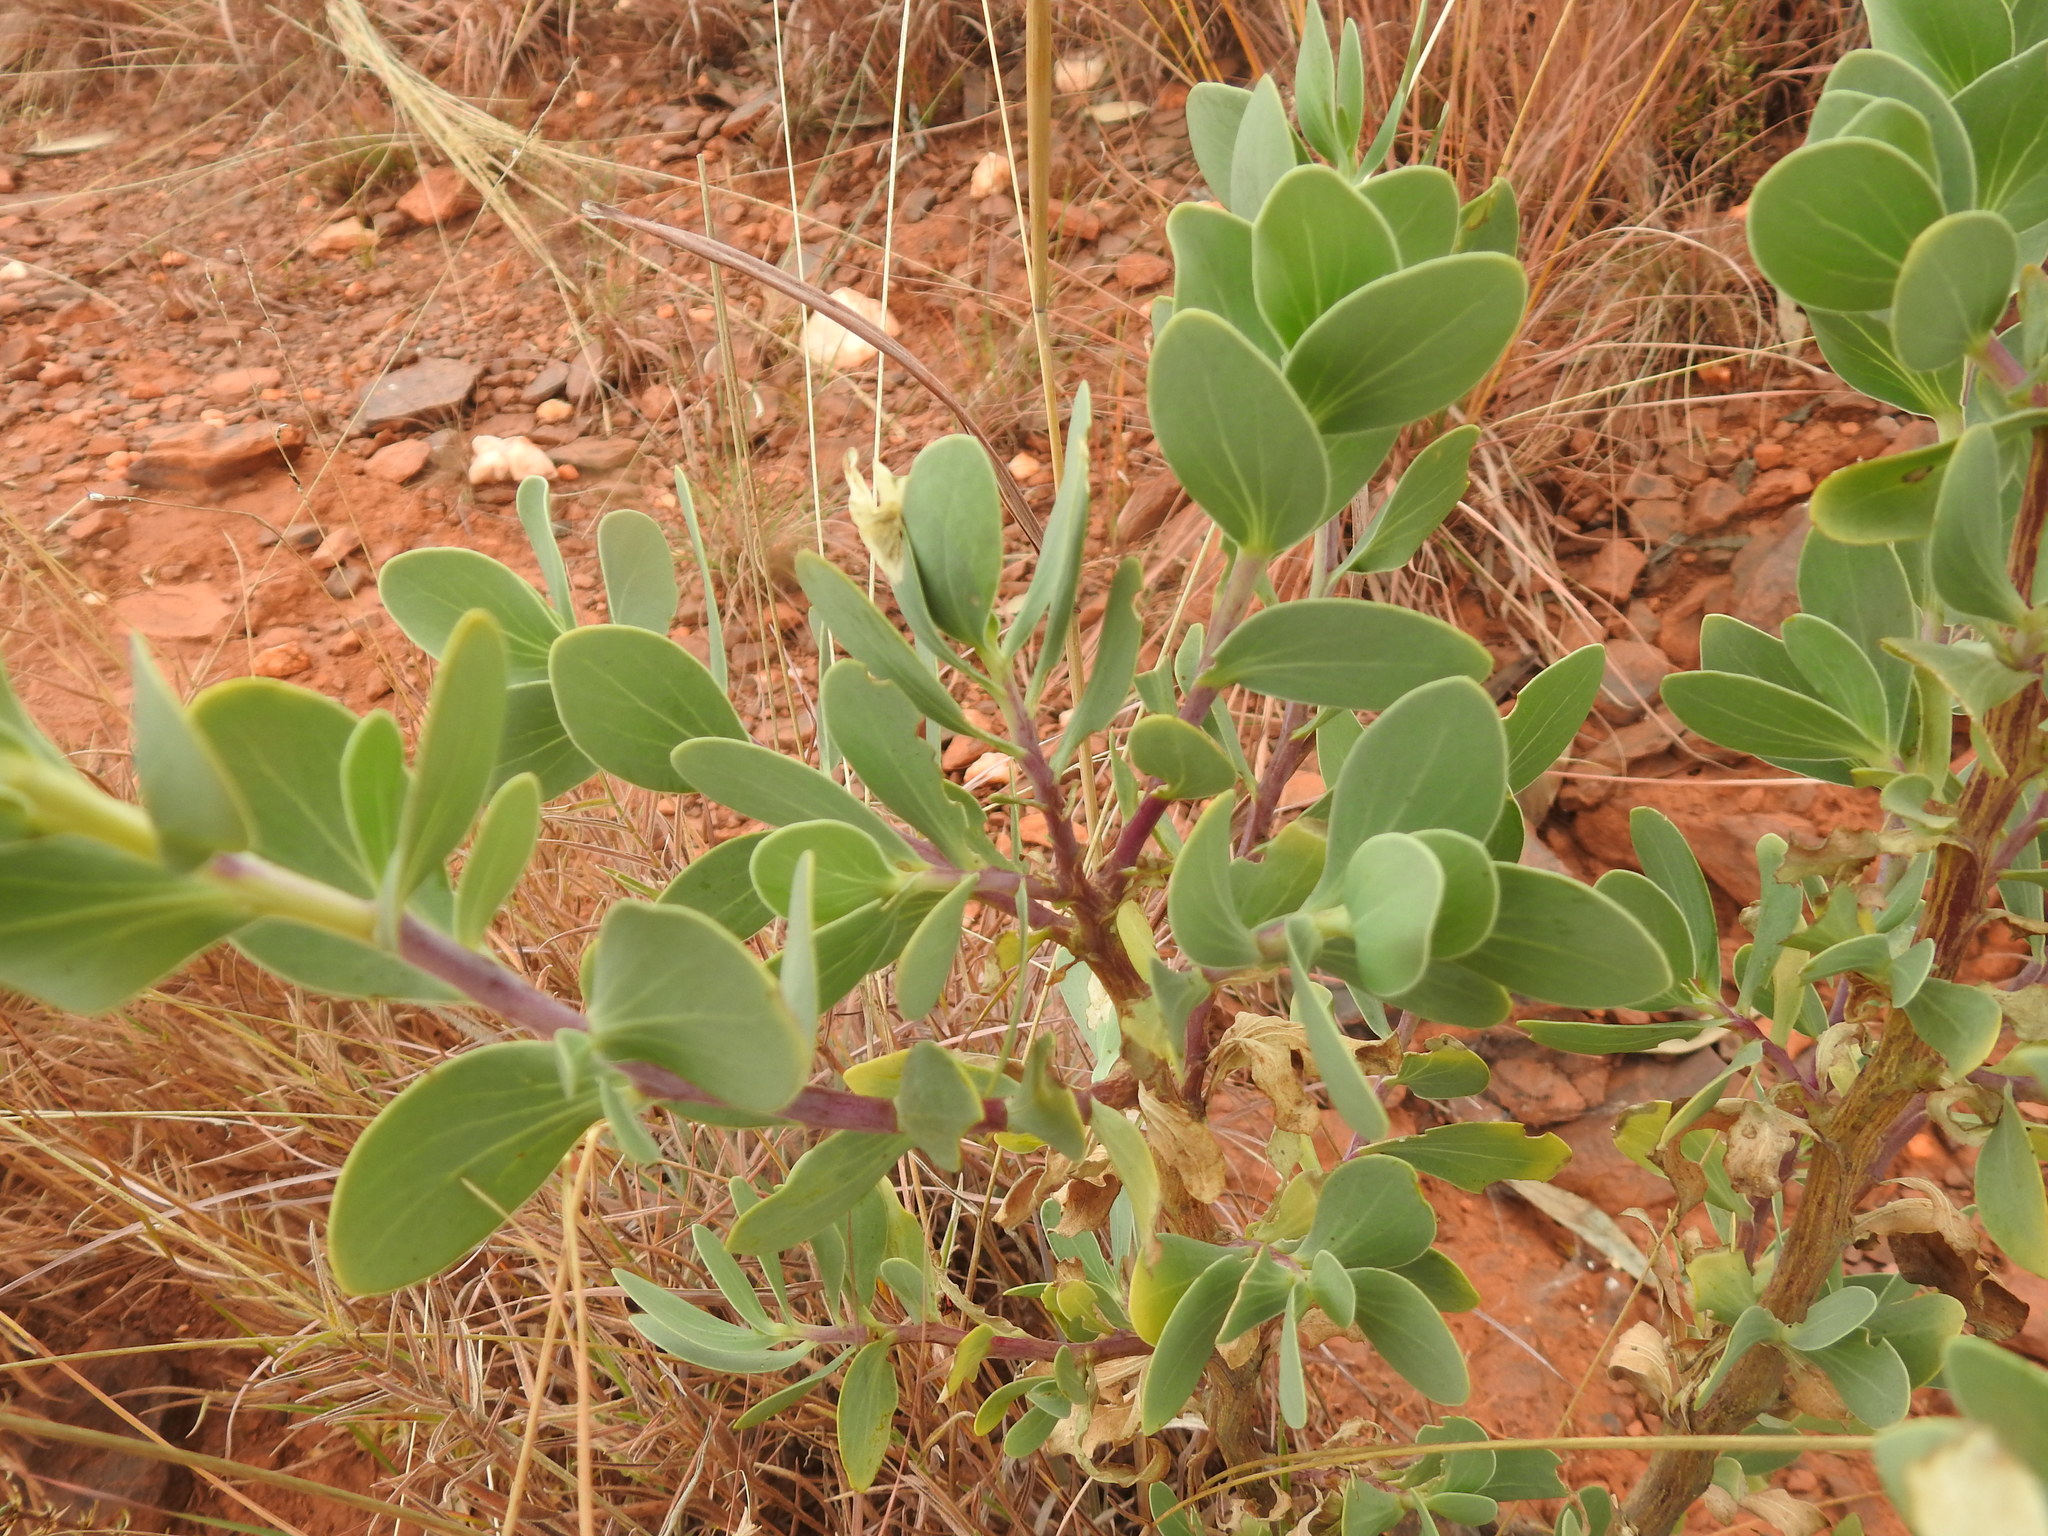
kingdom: Plantae
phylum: Tracheophyta
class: Magnoliopsida
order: Asterales
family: Asteraceae
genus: Lopholaena
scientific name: Lopholaena coriifolia
